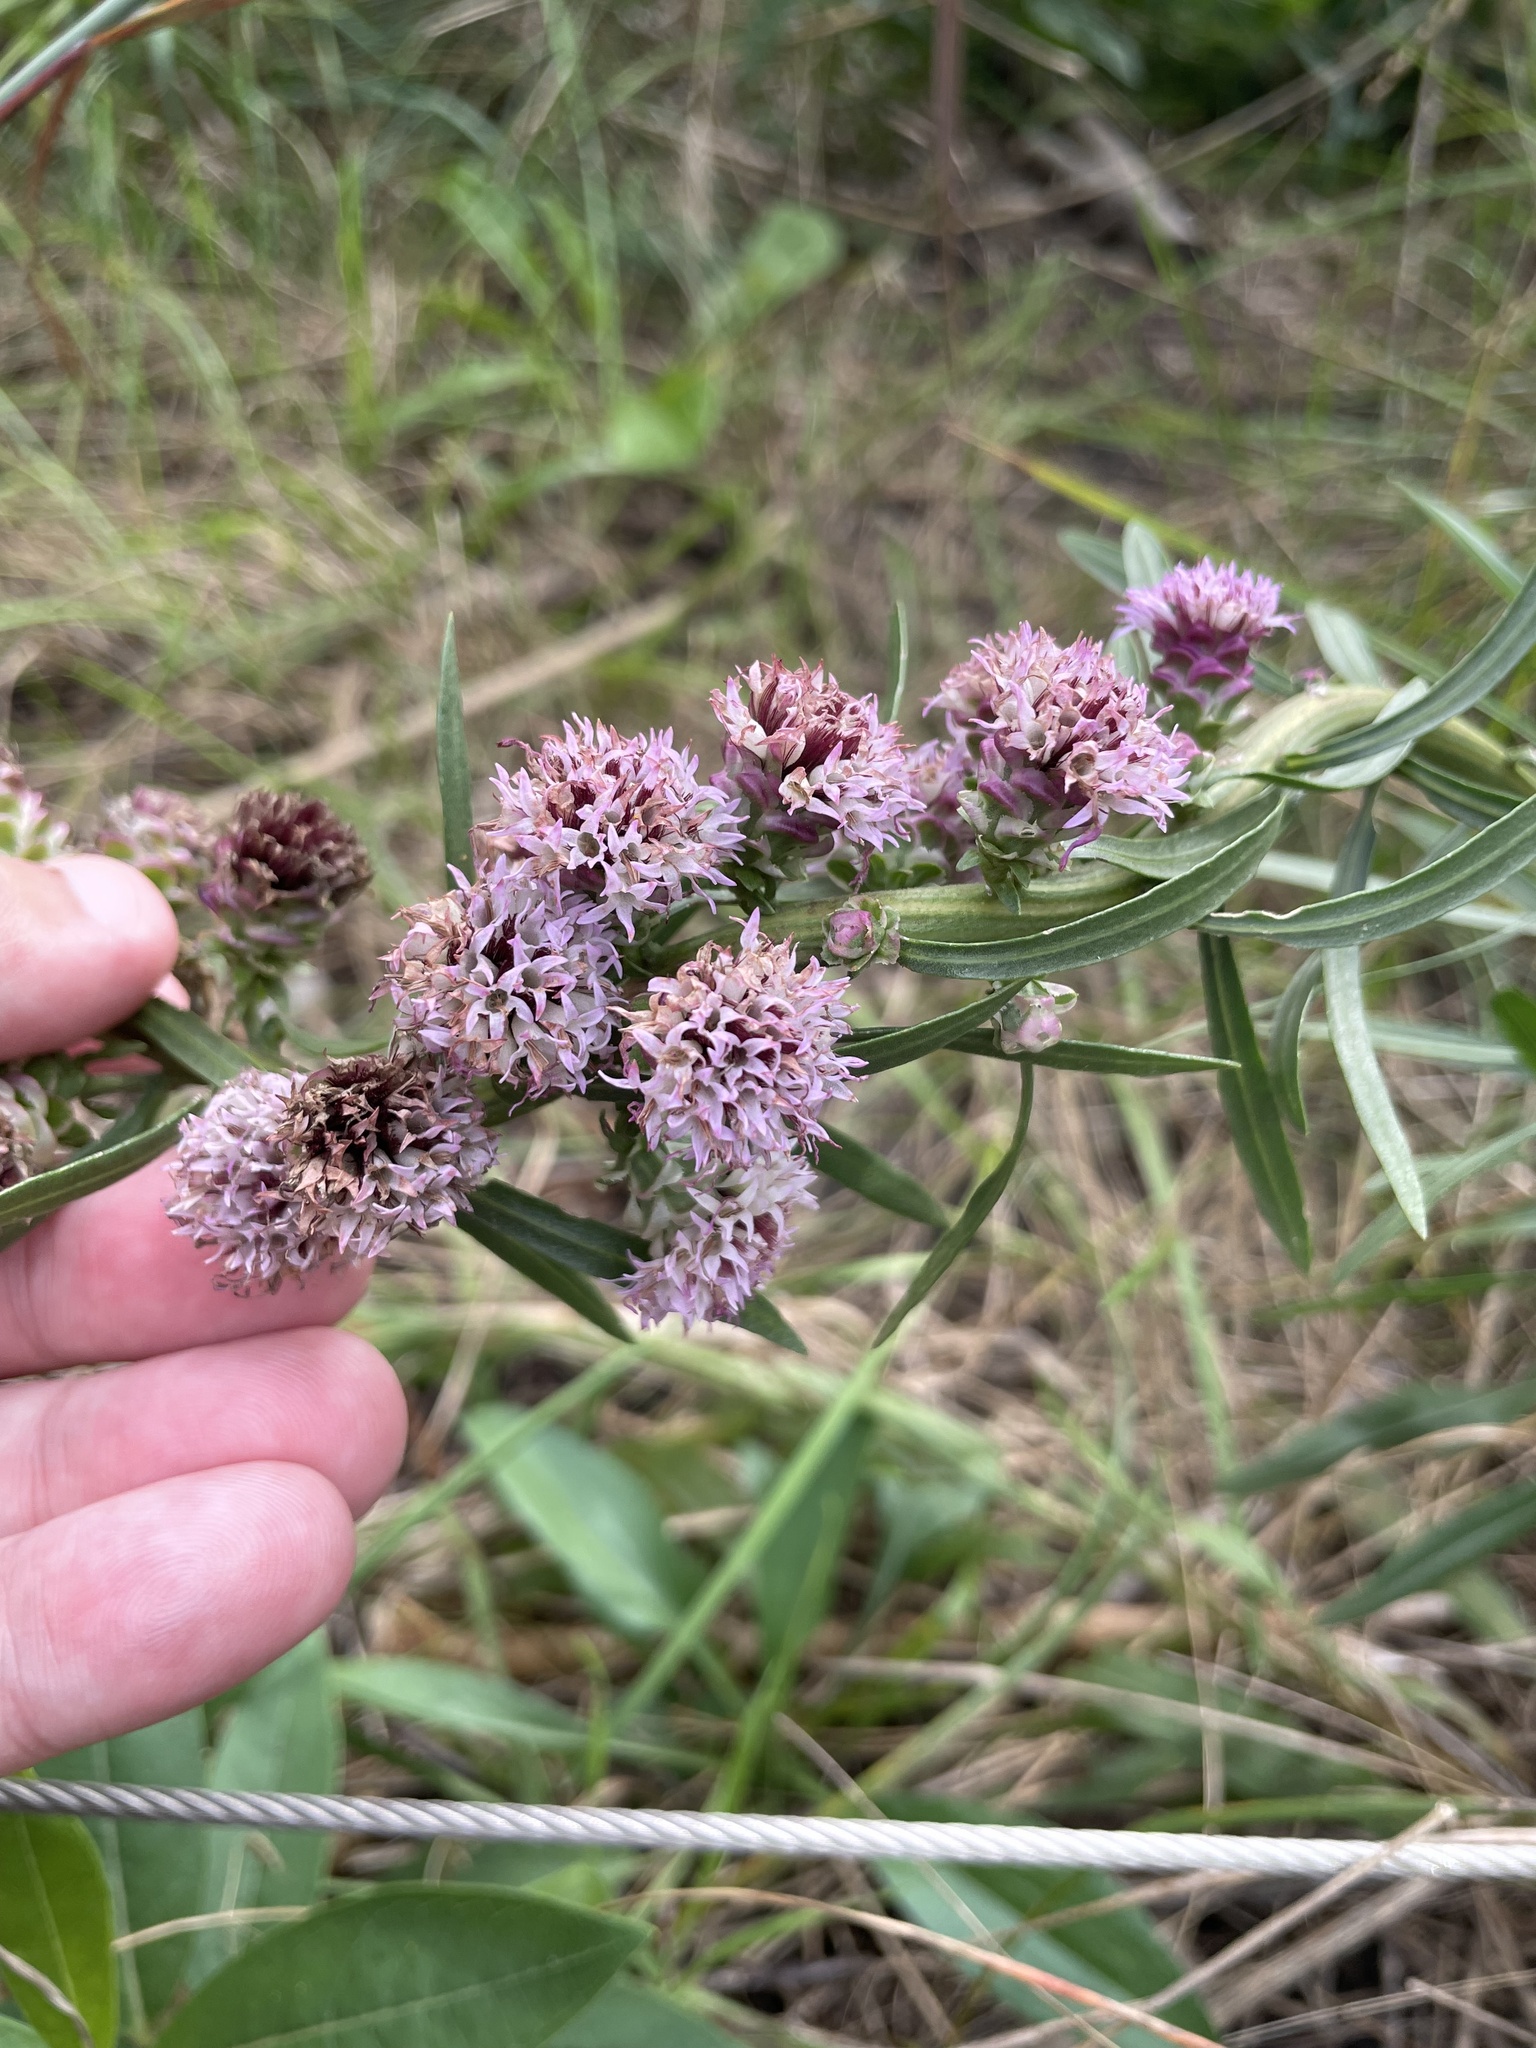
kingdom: Plantae
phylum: Tracheophyta
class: Magnoliopsida
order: Asterales
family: Asteraceae
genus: Liatris
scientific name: Liatris aspera
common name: Lacerate blazing-star
